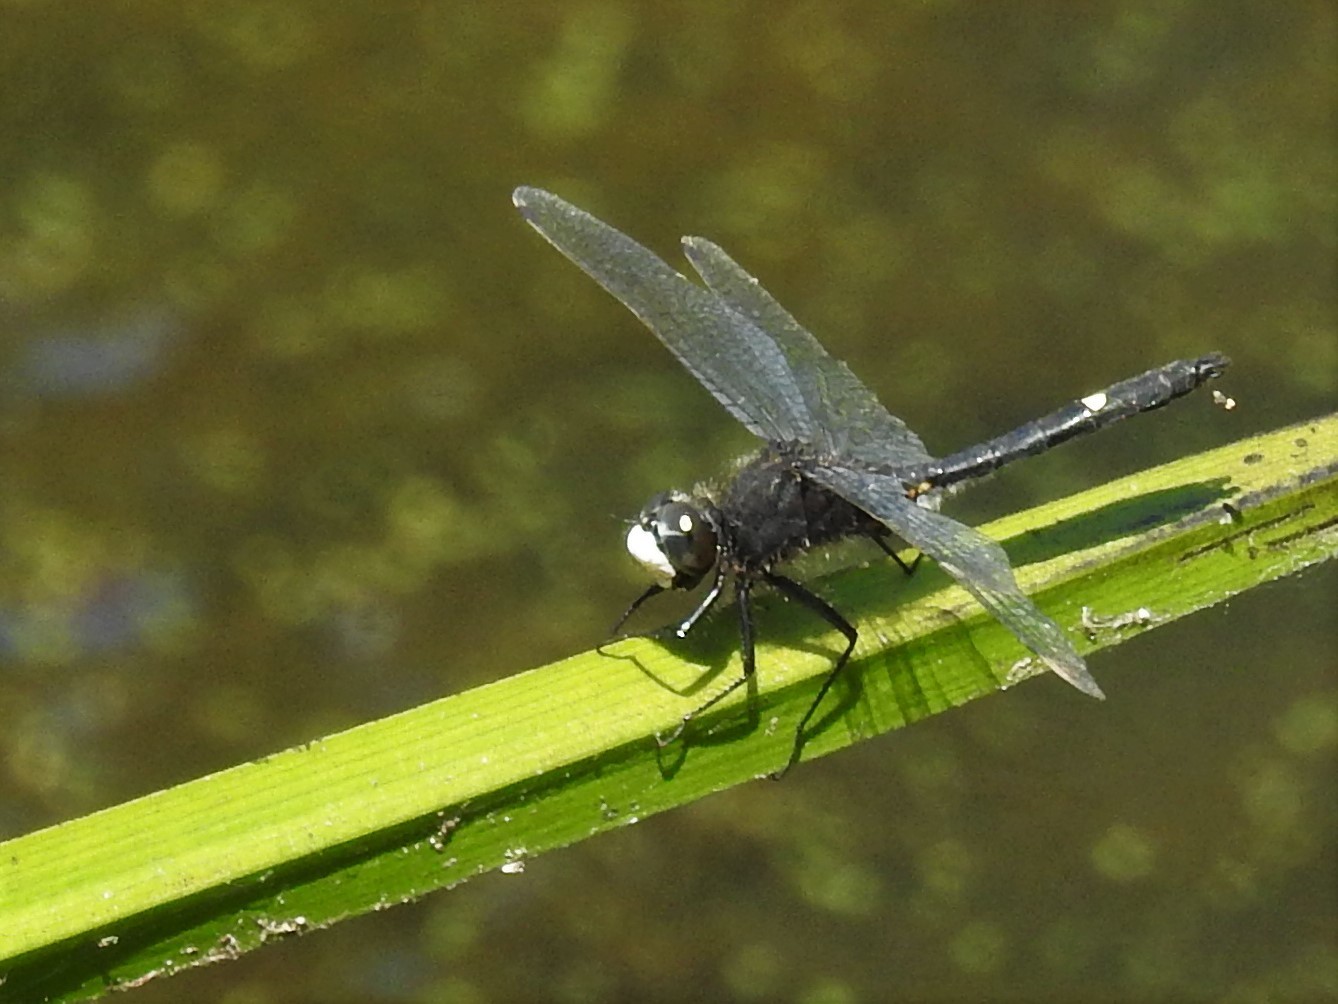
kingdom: Animalia
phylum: Arthropoda
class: Insecta
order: Odonata
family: Libellulidae
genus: Leucorrhinia
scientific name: Leucorrhinia intacta
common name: Dot-tailed whiteface
